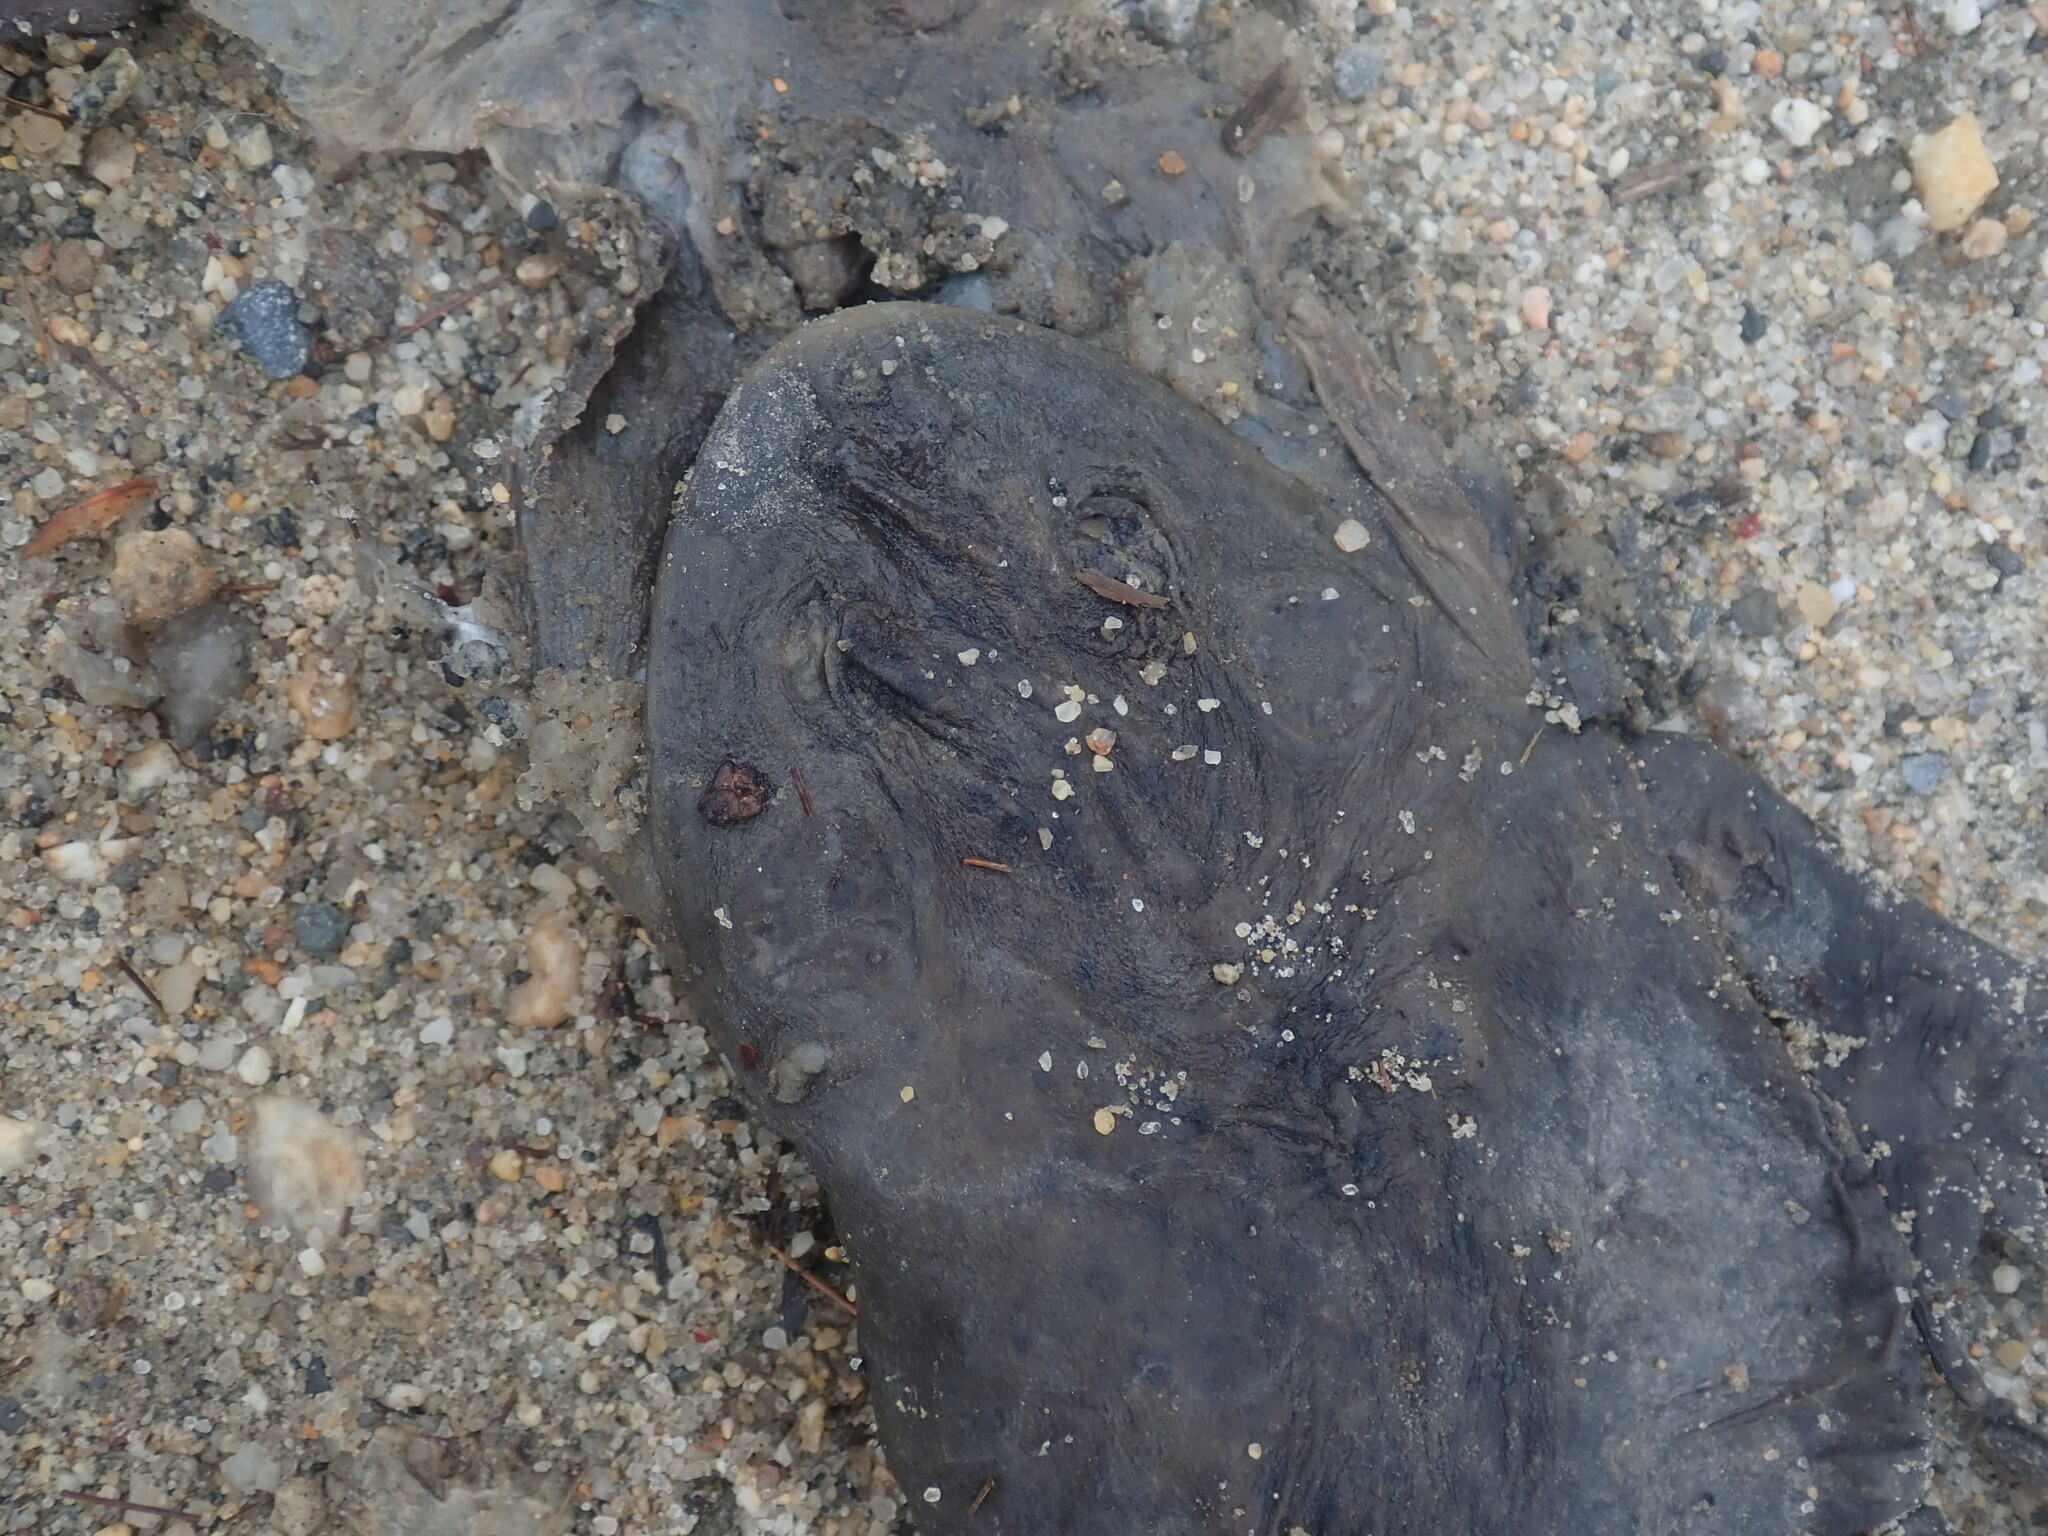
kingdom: Animalia
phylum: Chordata
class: Amphibia
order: Anura
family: Ranidae
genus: Lithobates
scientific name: Lithobates catesbeianus
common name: American bullfrog
